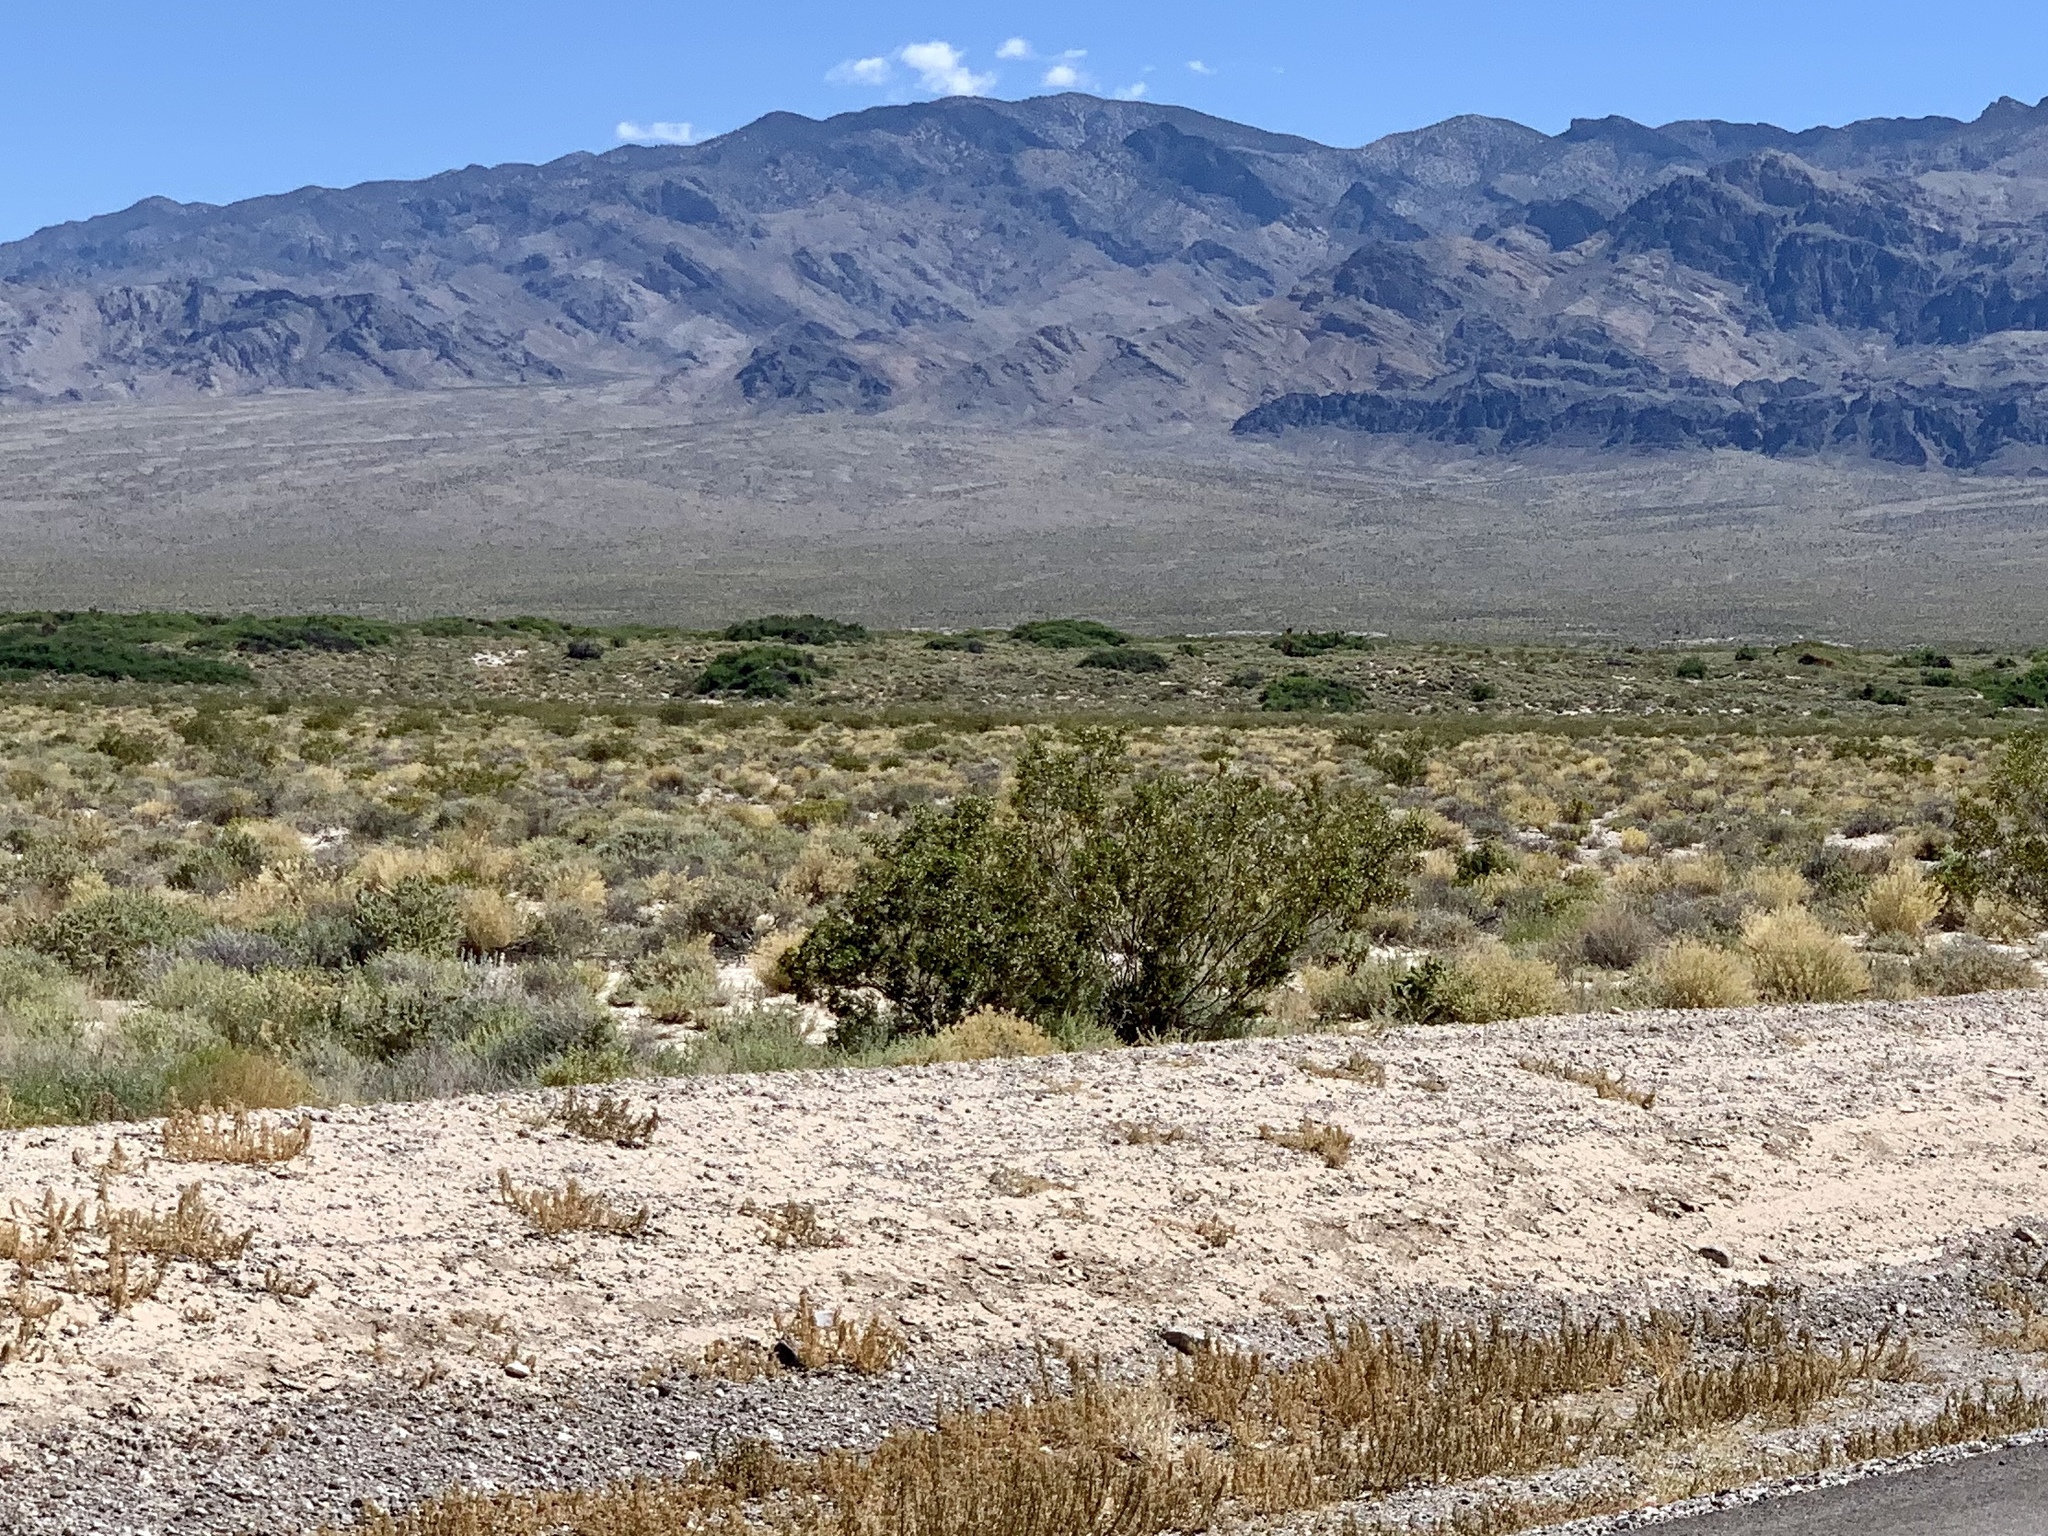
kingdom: Plantae
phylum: Tracheophyta
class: Magnoliopsida
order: Zygophyllales
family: Zygophyllaceae
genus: Larrea
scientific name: Larrea tridentata
